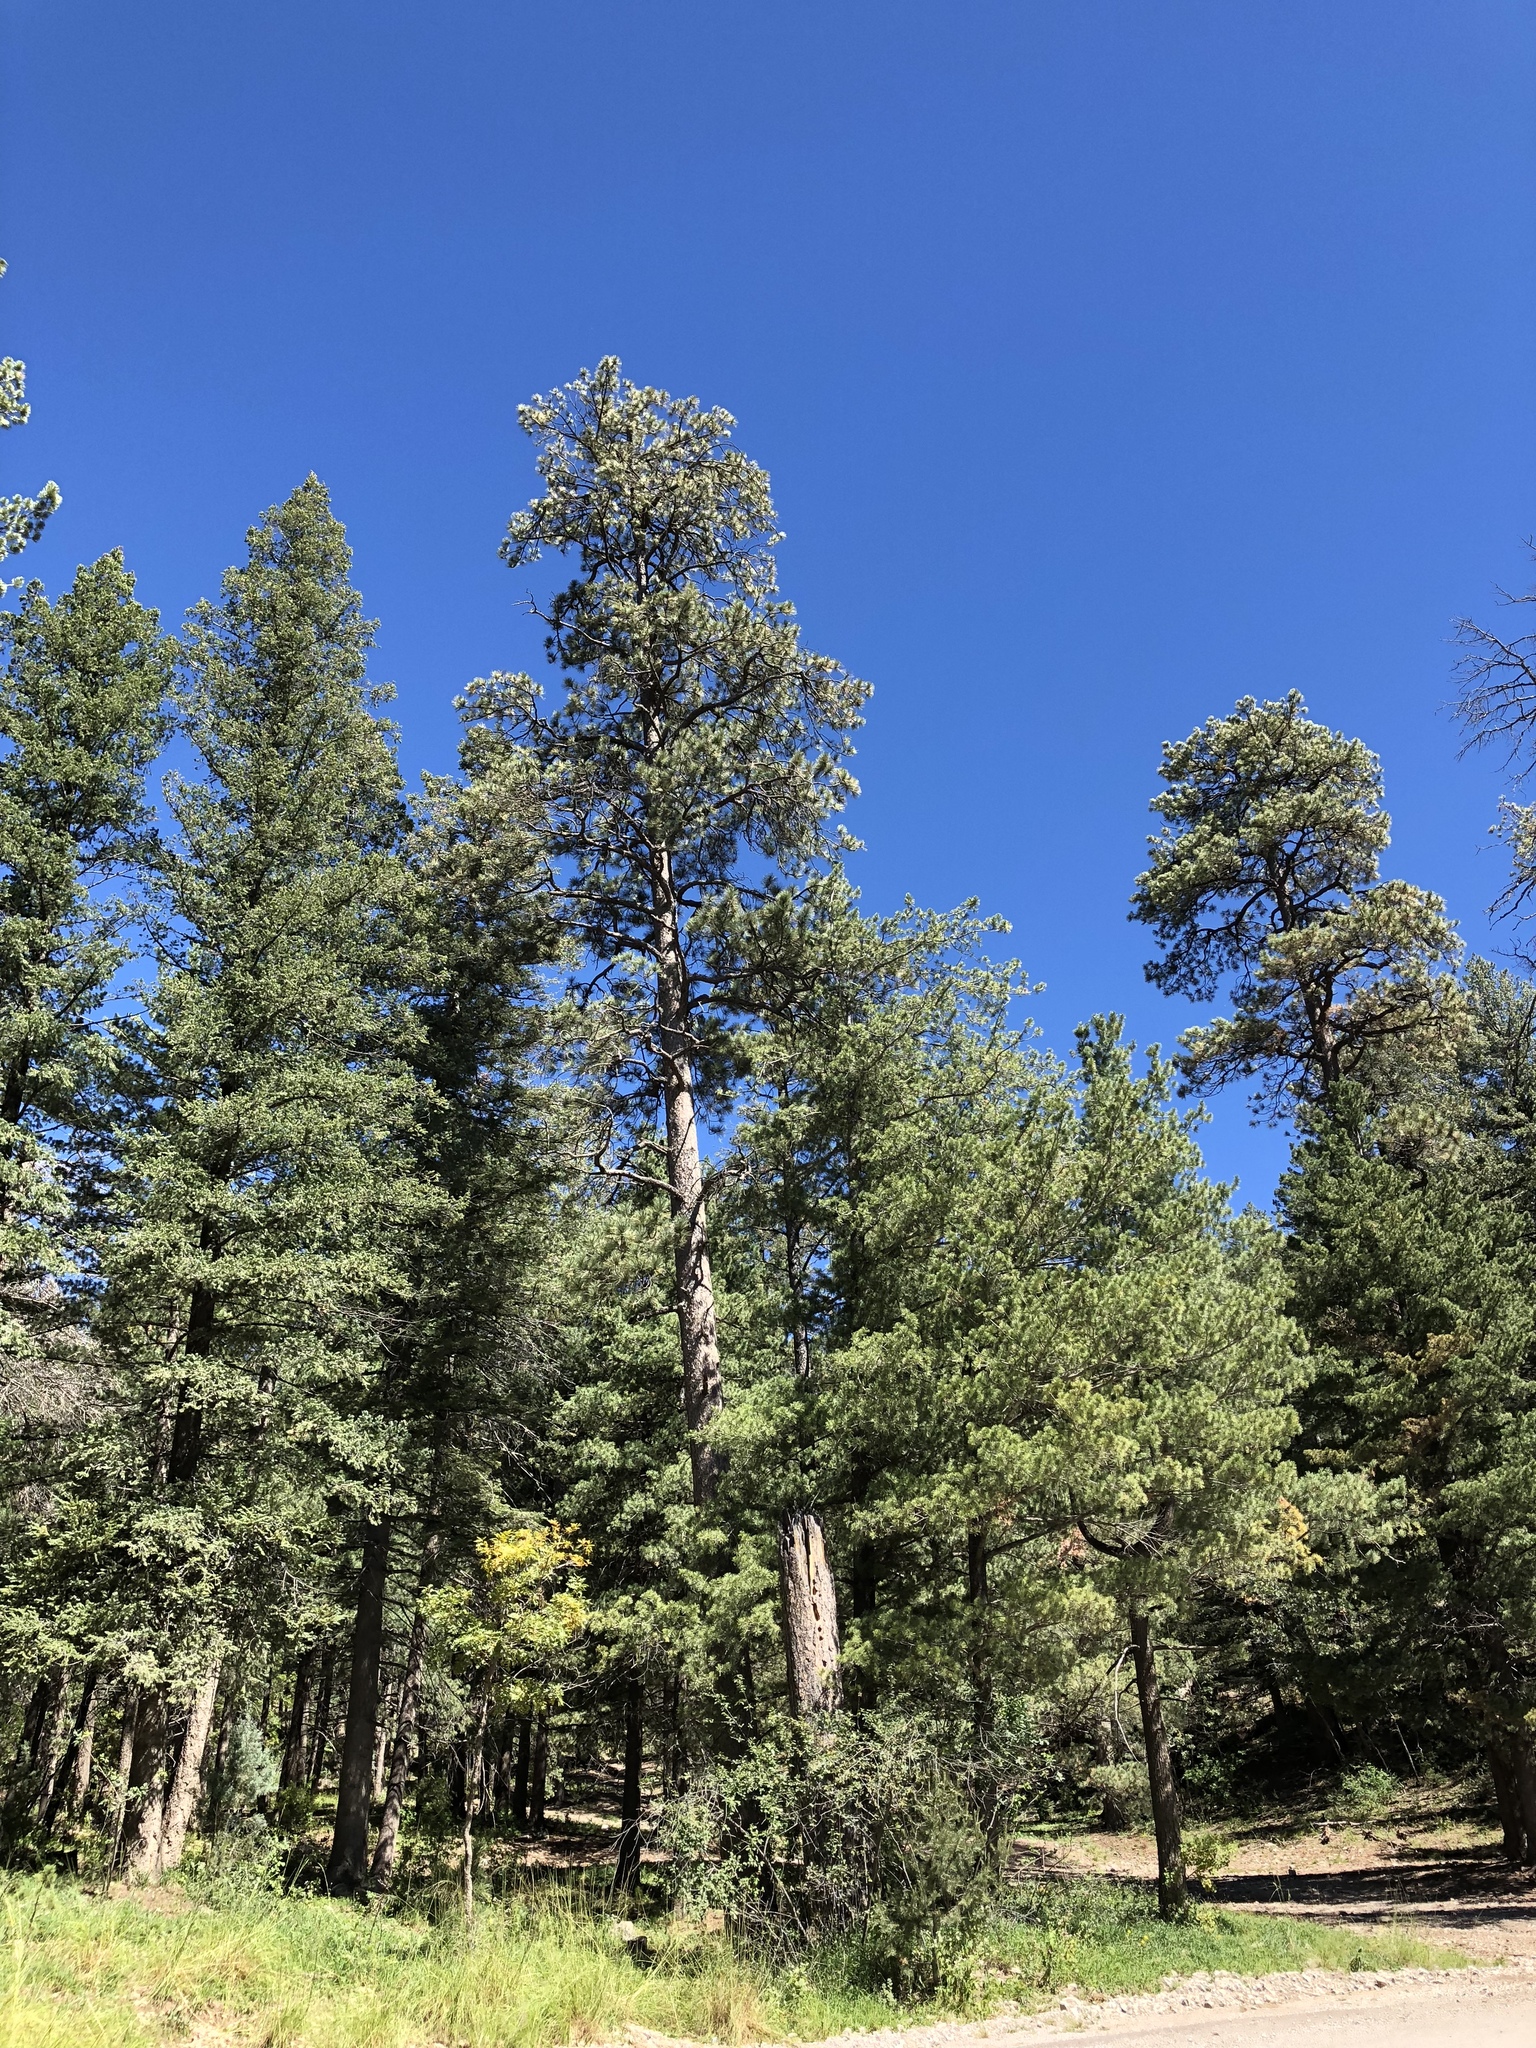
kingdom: Plantae
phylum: Tracheophyta
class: Pinopsida
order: Pinales
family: Pinaceae
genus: Pinus
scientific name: Pinus ponderosa
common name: Western yellow-pine
